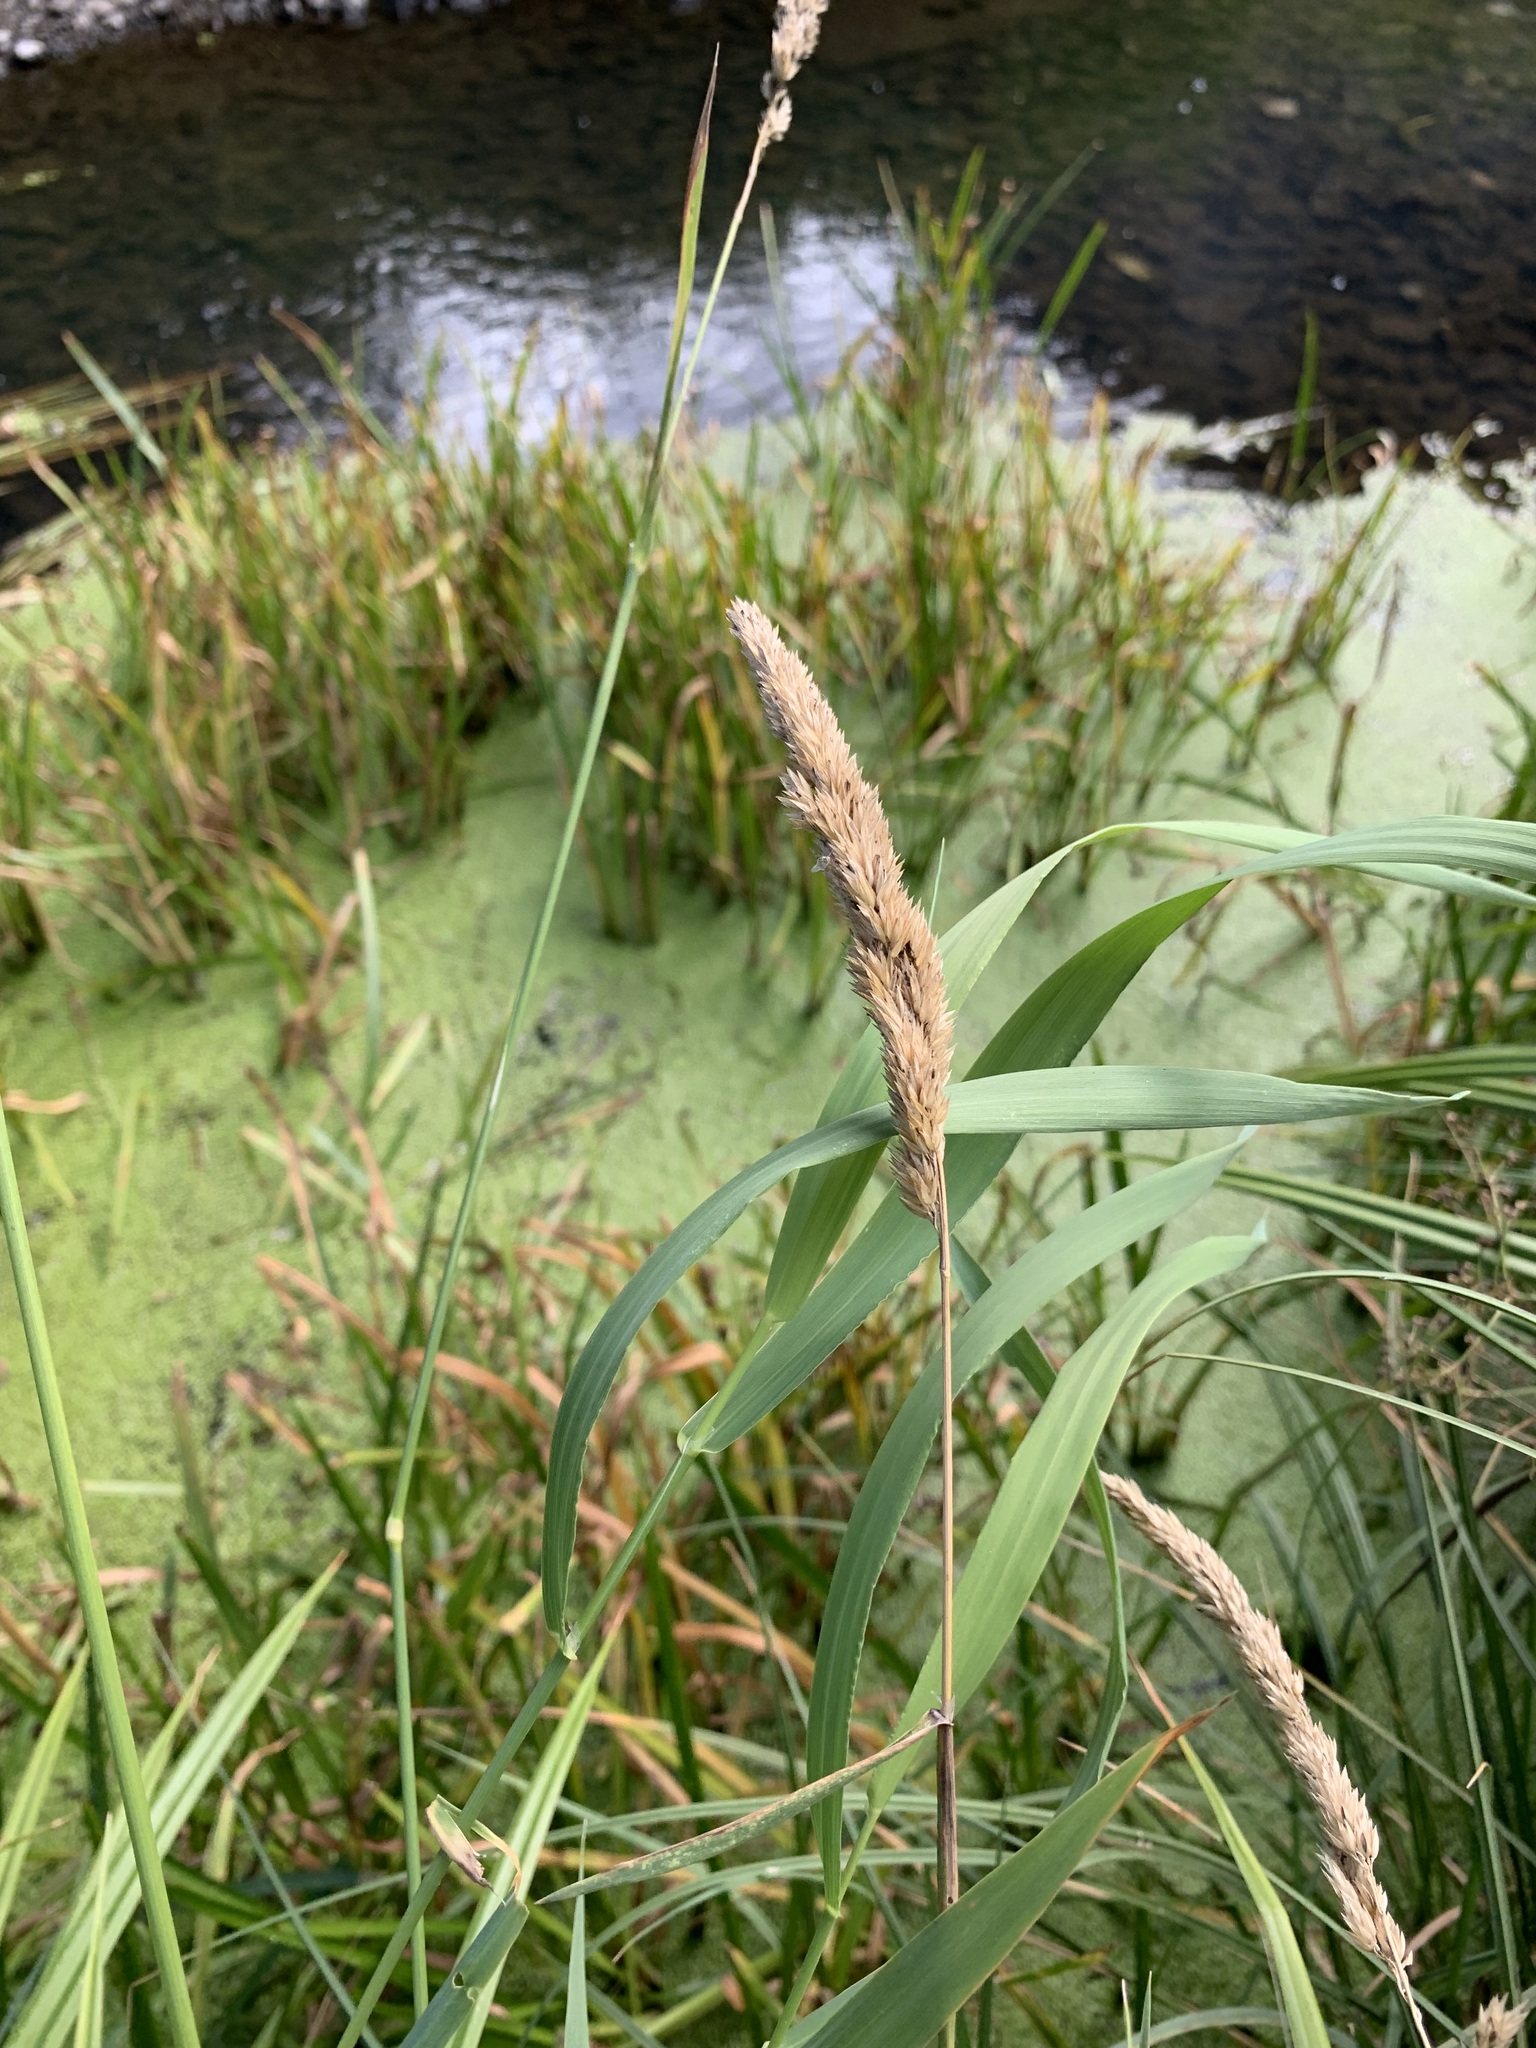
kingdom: Plantae
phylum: Tracheophyta
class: Liliopsida
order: Poales
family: Poaceae
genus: Phalaris
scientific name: Phalaris arundinacea
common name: Reed canary-grass
